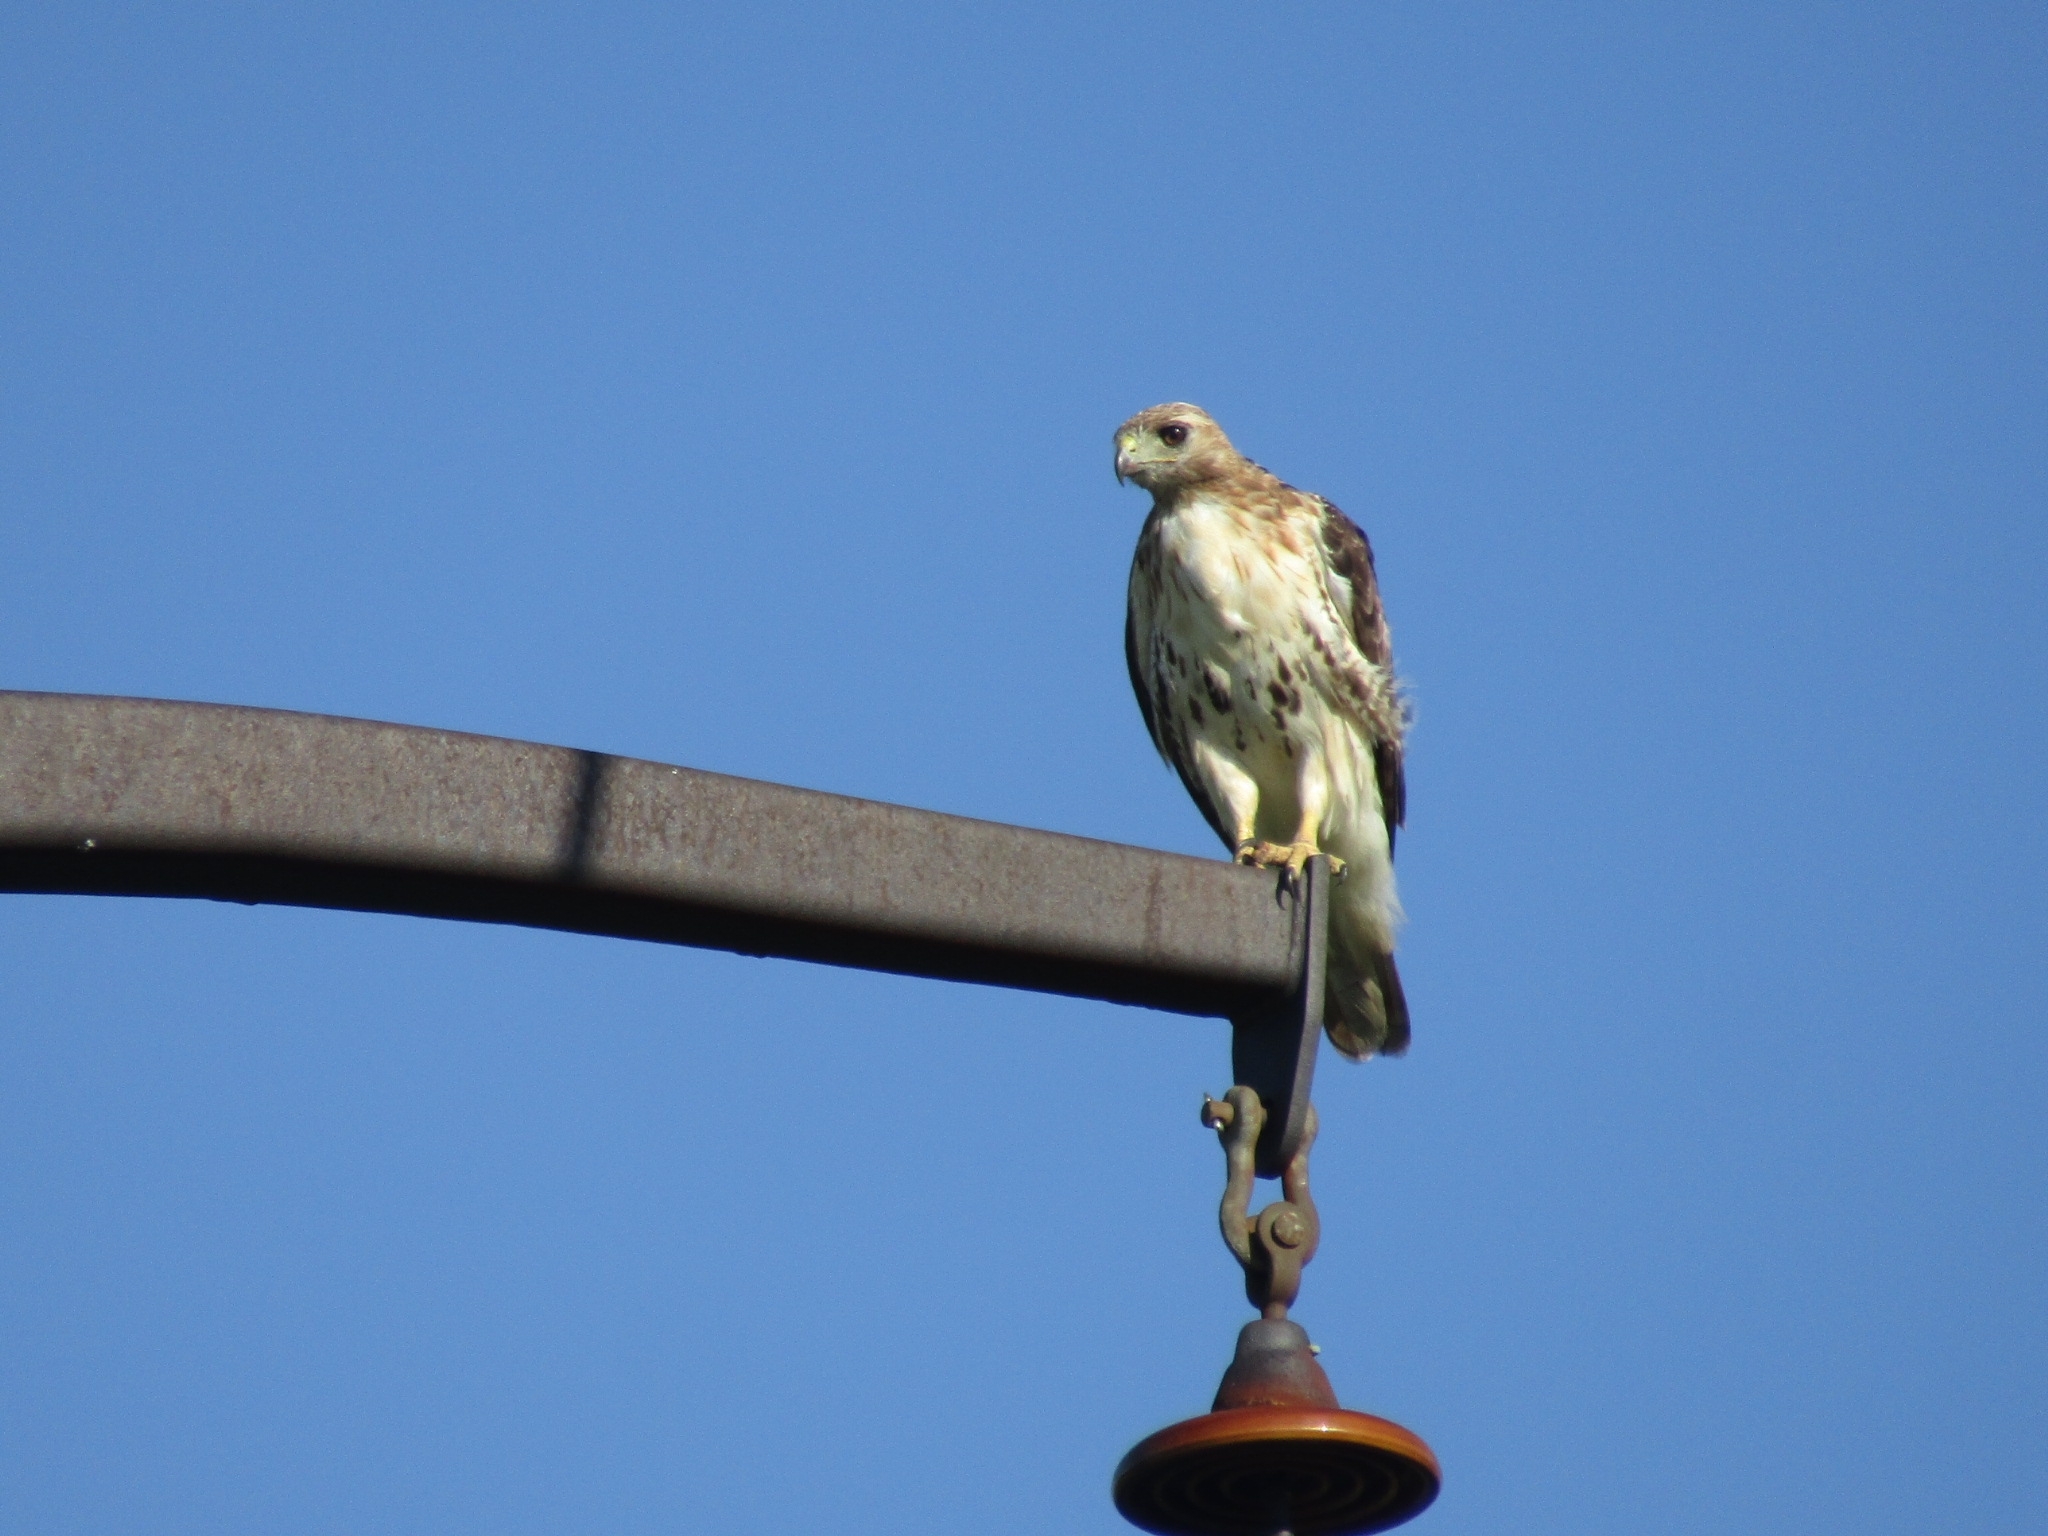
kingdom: Animalia
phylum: Chordata
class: Aves
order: Accipitriformes
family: Accipitridae
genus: Buteo
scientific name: Buteo jamaicensis
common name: Red-tailed hawk
